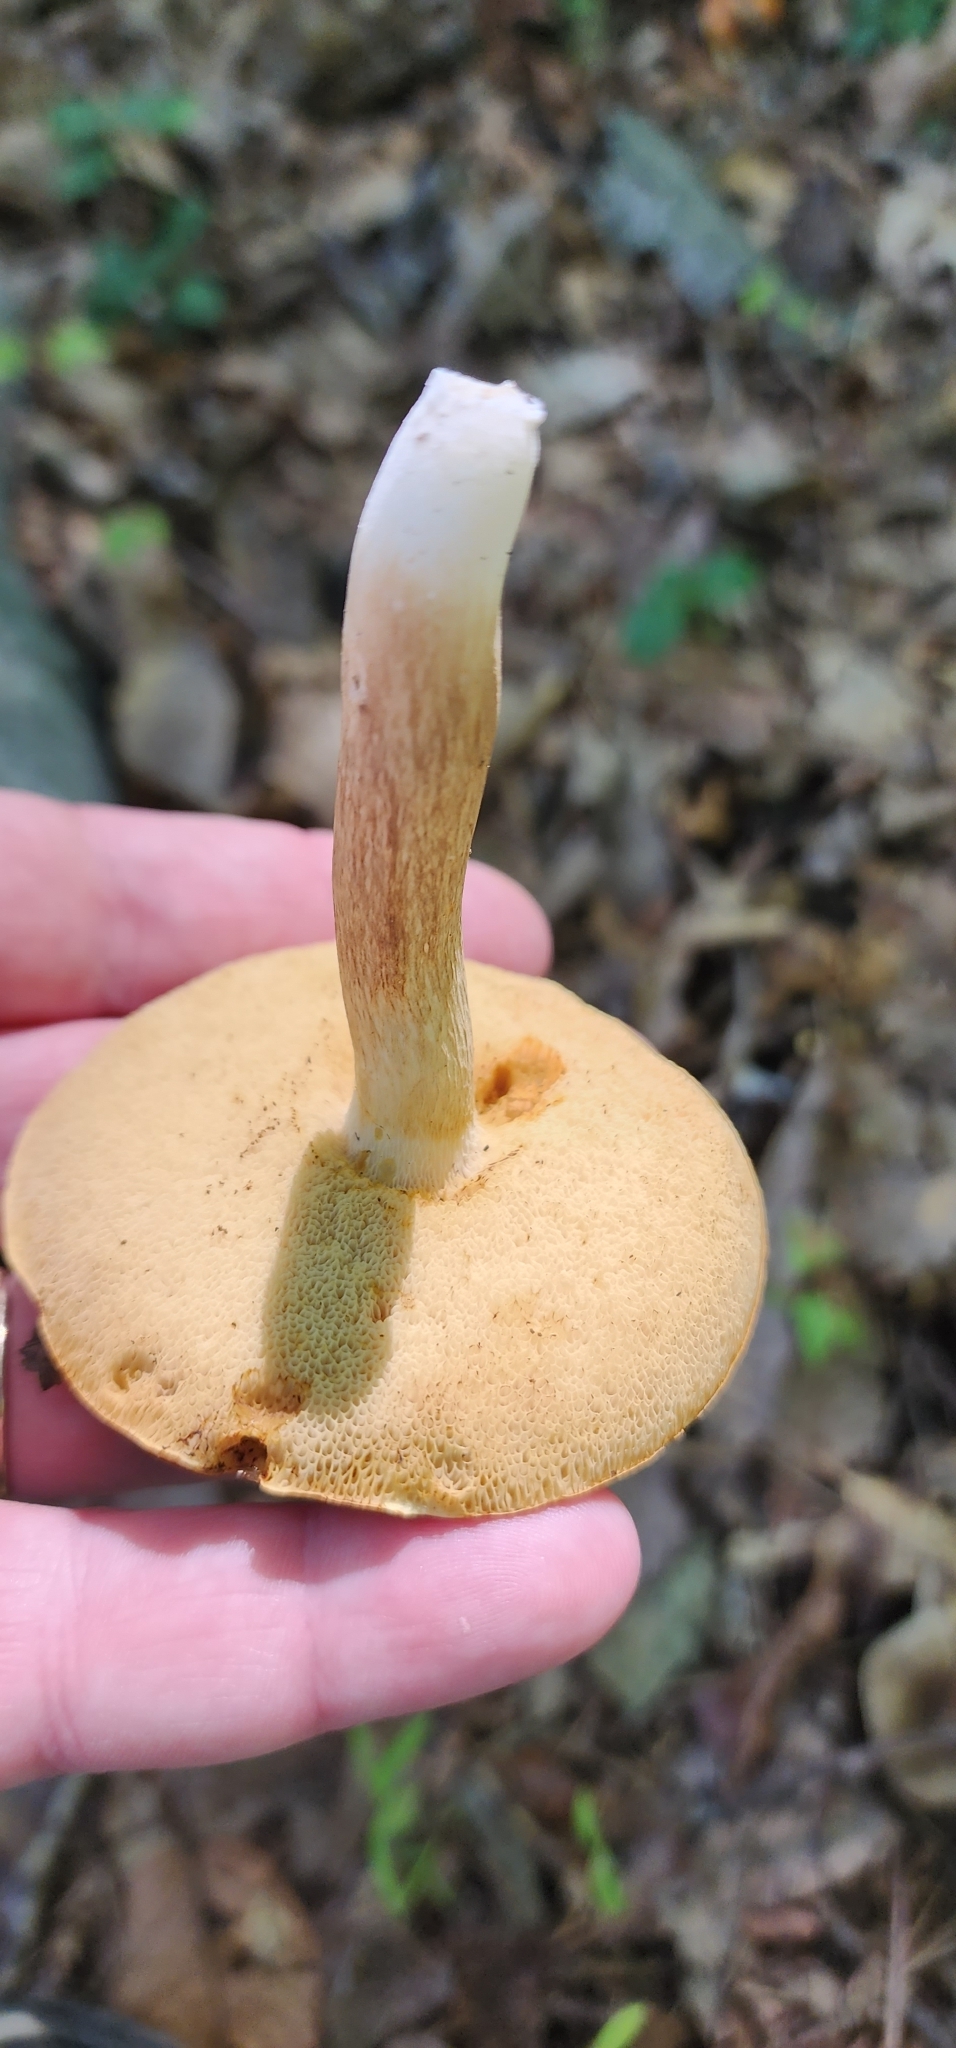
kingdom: Fungi
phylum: Basidiomycota
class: Agaricomycetes
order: Boletales
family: Boletaceae
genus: Xanthoconium
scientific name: Xanthoconium affine
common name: Spotted bolete
